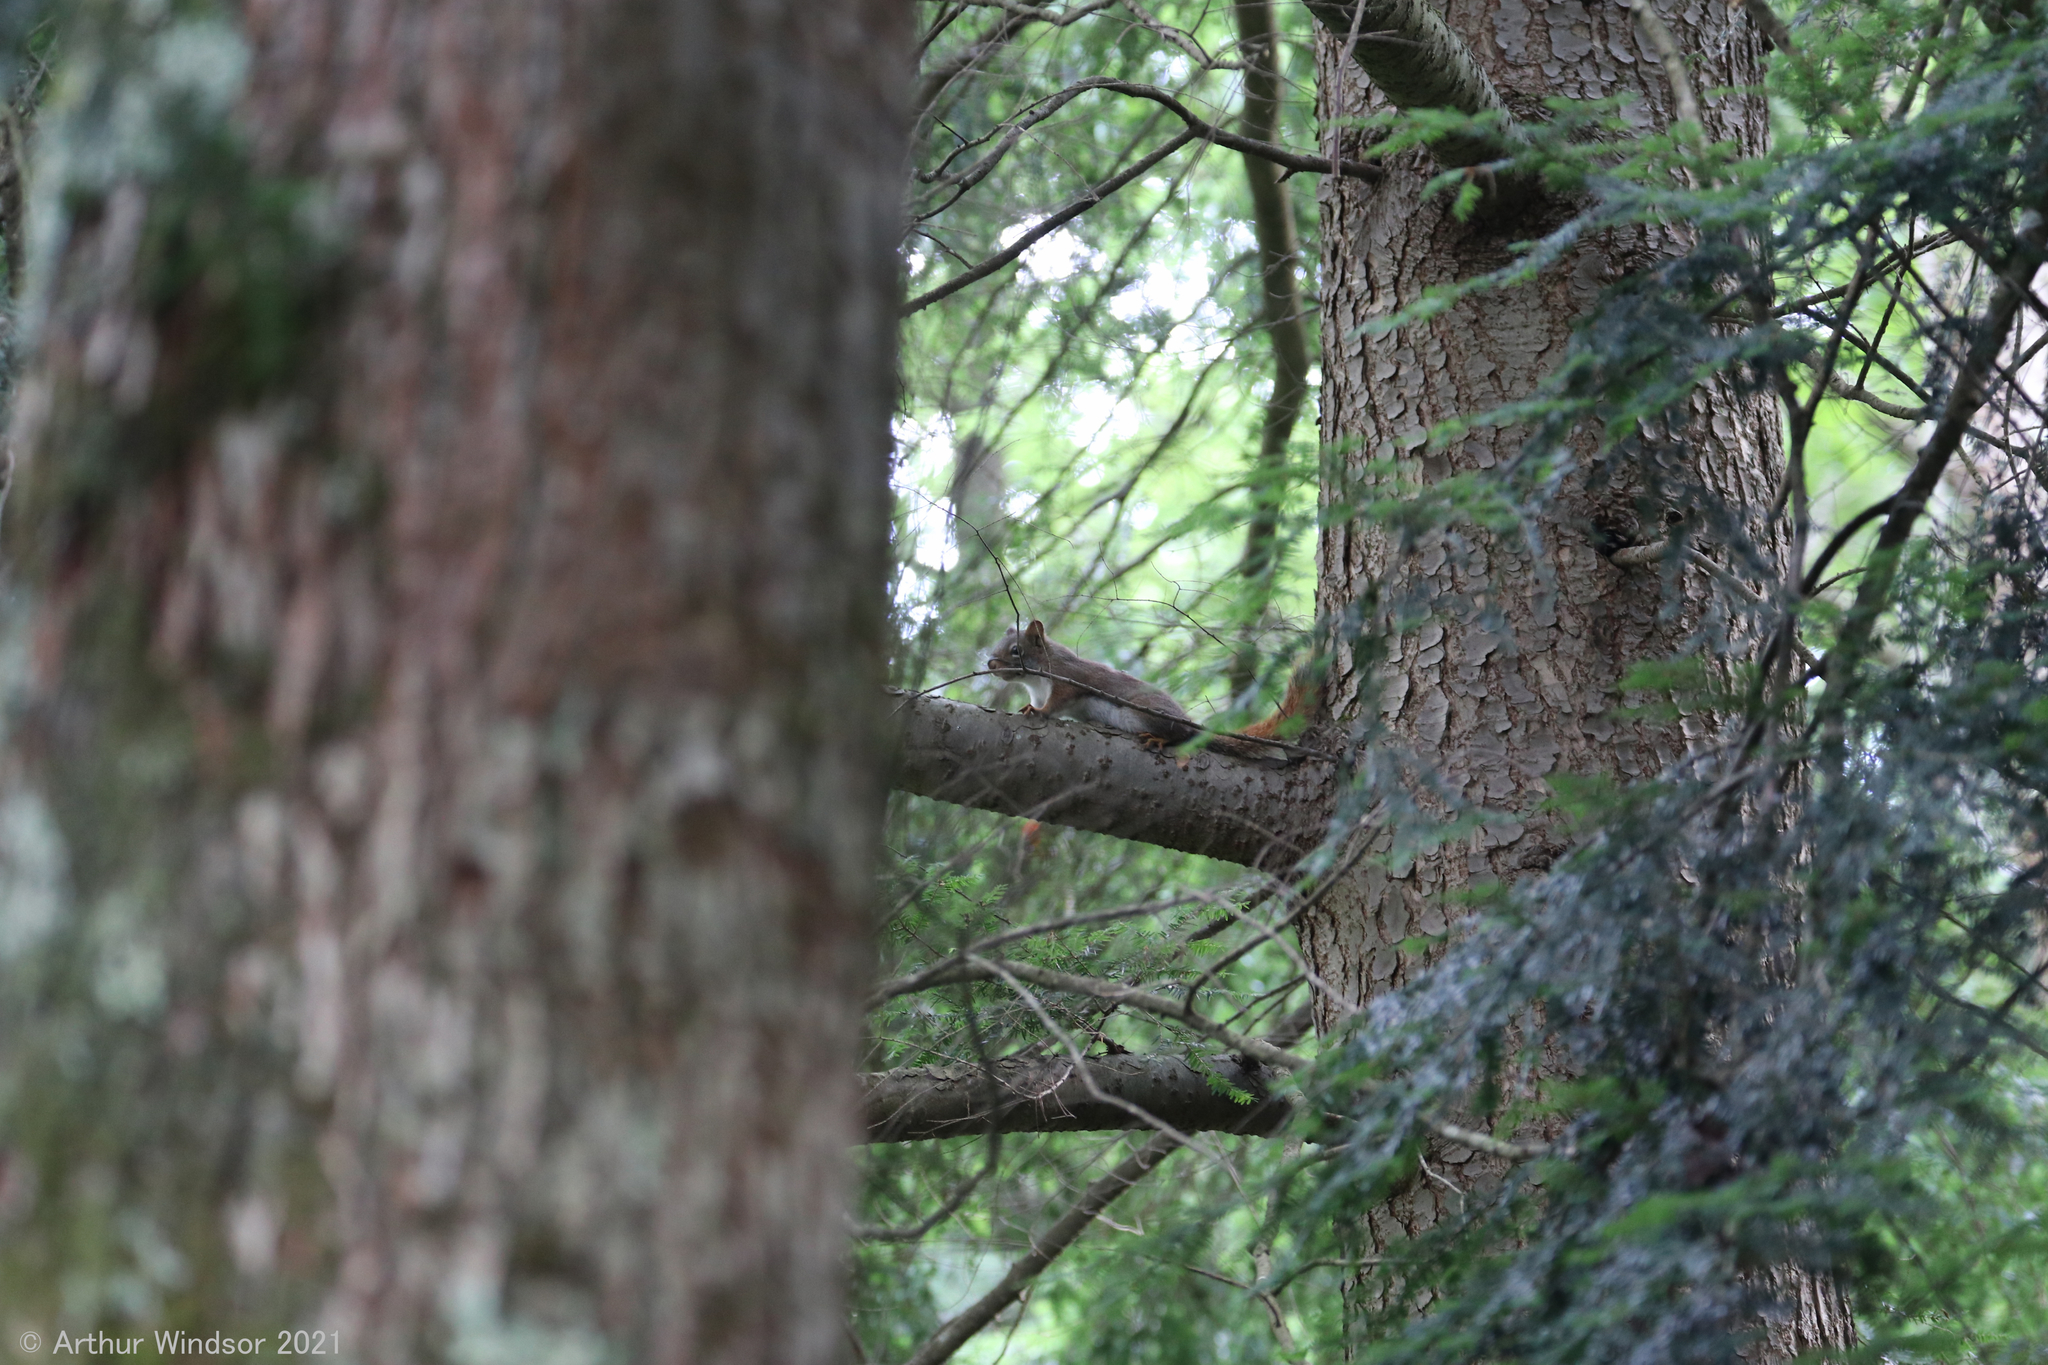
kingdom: Animalia
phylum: Chordata
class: Mammalia
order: Rodentia
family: Sciuridae
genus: Tamiasciurus
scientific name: Tamiasciurus hudsonicus
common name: Red squirrel
